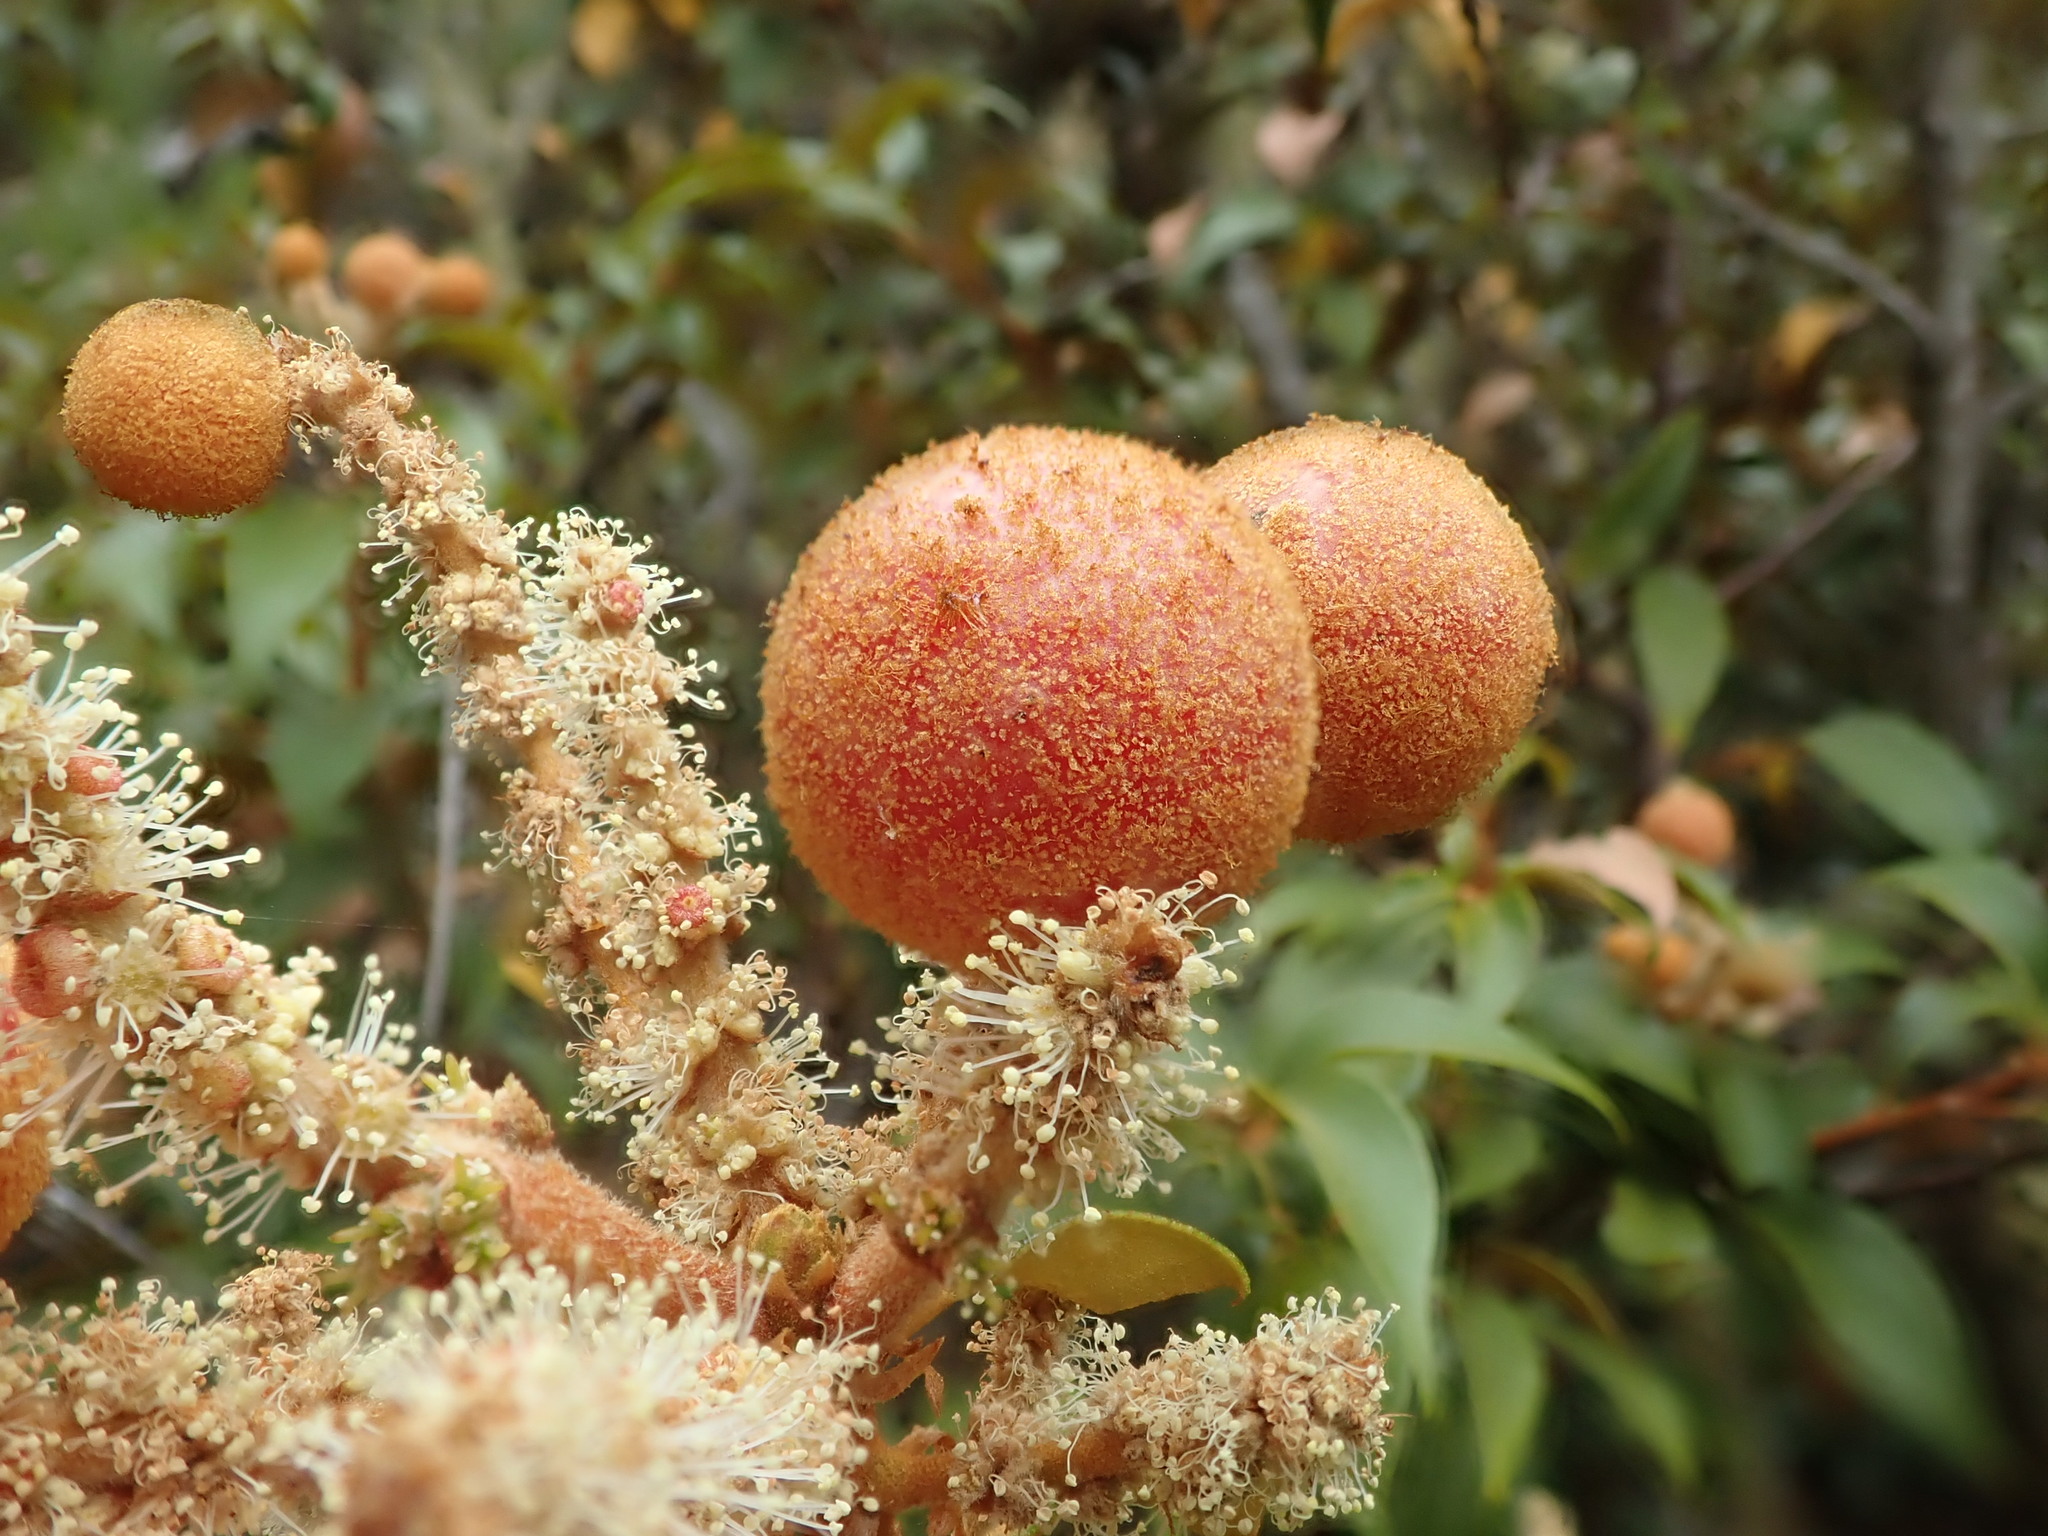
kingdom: Animalia
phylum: Arthropoda
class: Insecta
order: Hymenoptera
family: Cynipidae
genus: Synergus
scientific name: Synergus castanopsidis
